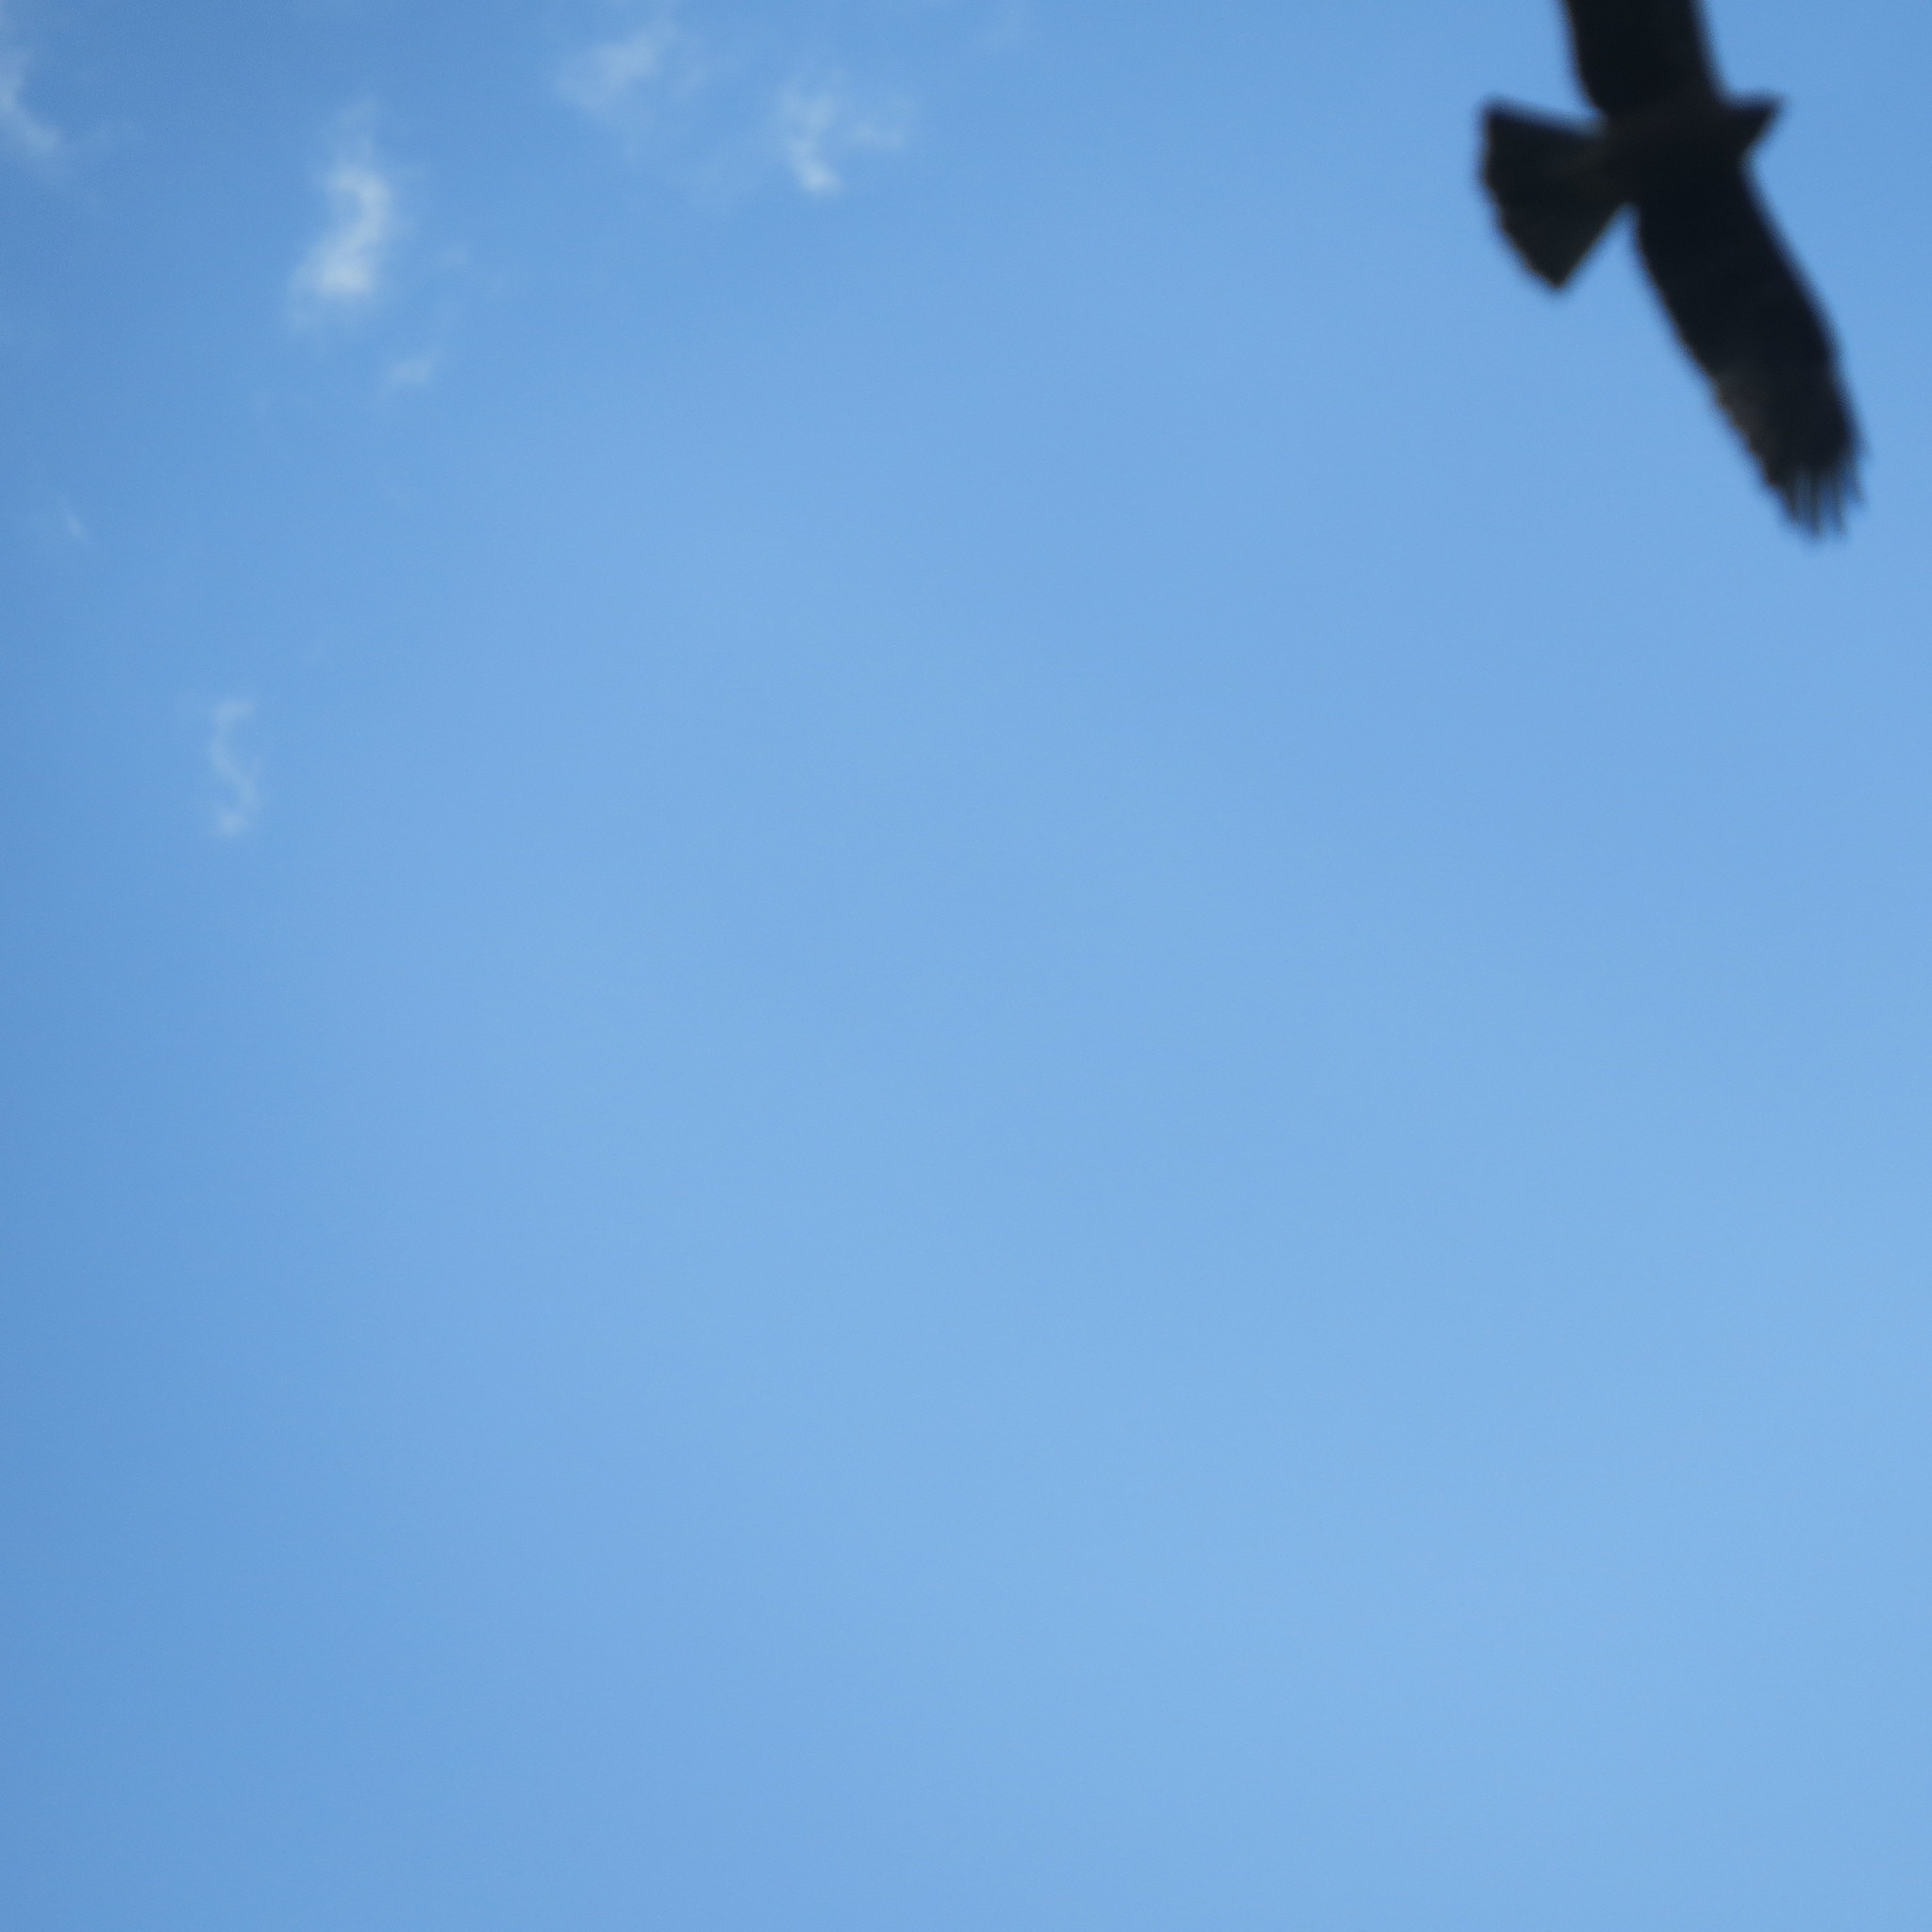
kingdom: Animalia
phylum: Chordata
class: Aves
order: Accipitriformes
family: Accipitridae
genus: Hieraaetus
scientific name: Hieraaetus pennatus
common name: Booted eagle
